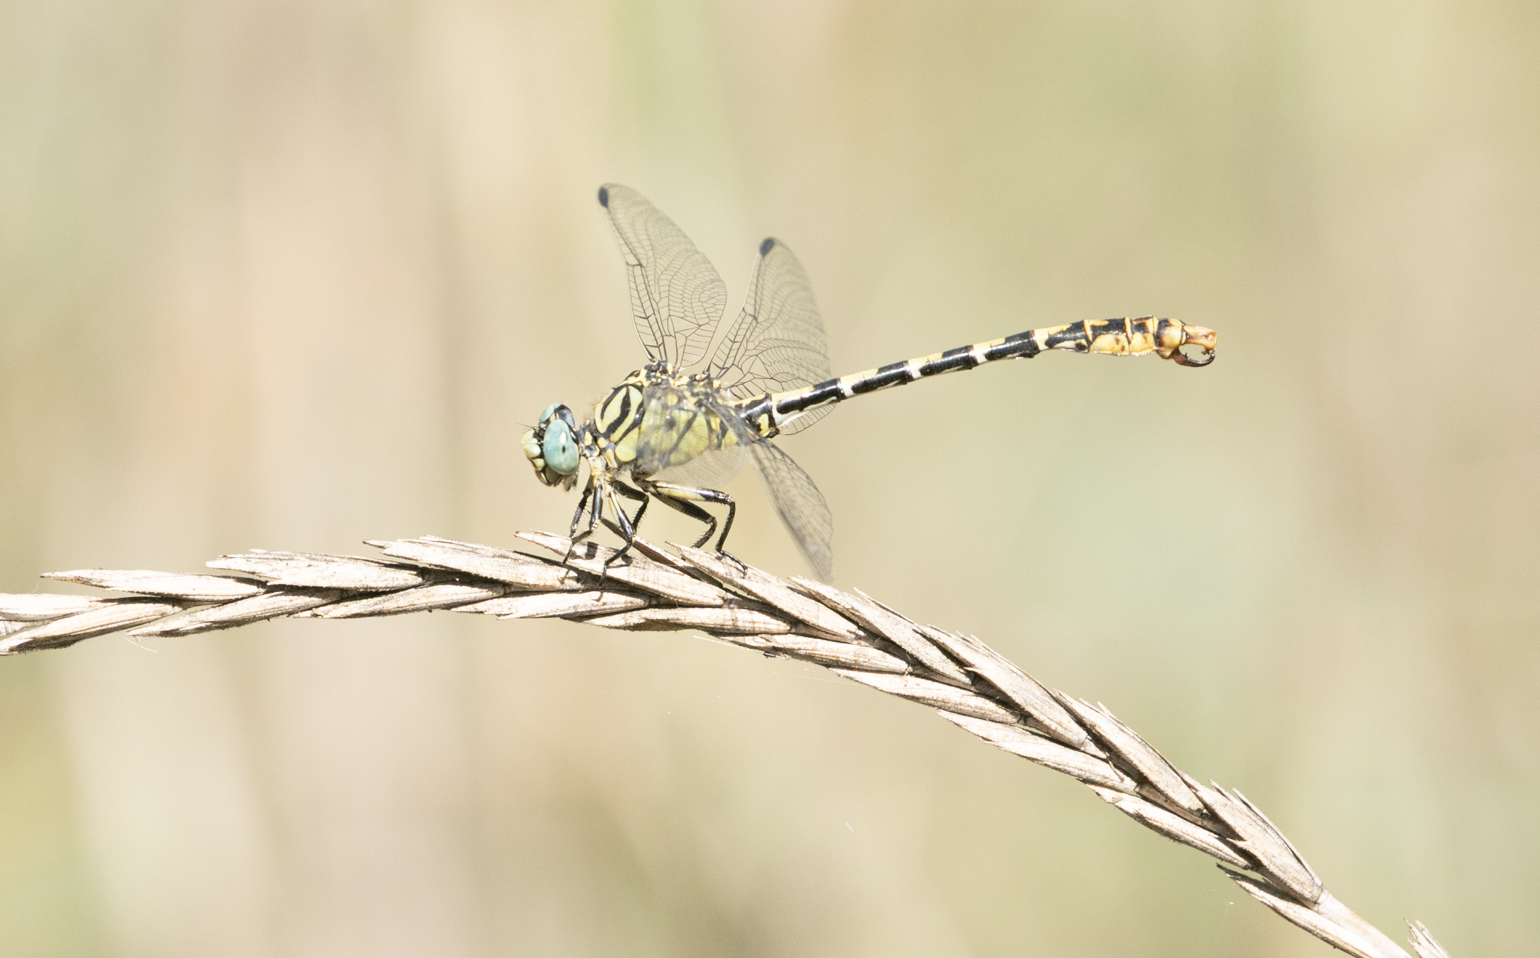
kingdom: Animalia
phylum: Arthropoda
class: Insecta
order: Odonata
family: Gomphidae
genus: Onychogomphus
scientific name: Onychogomphus forcipatus
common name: Small pincertail
